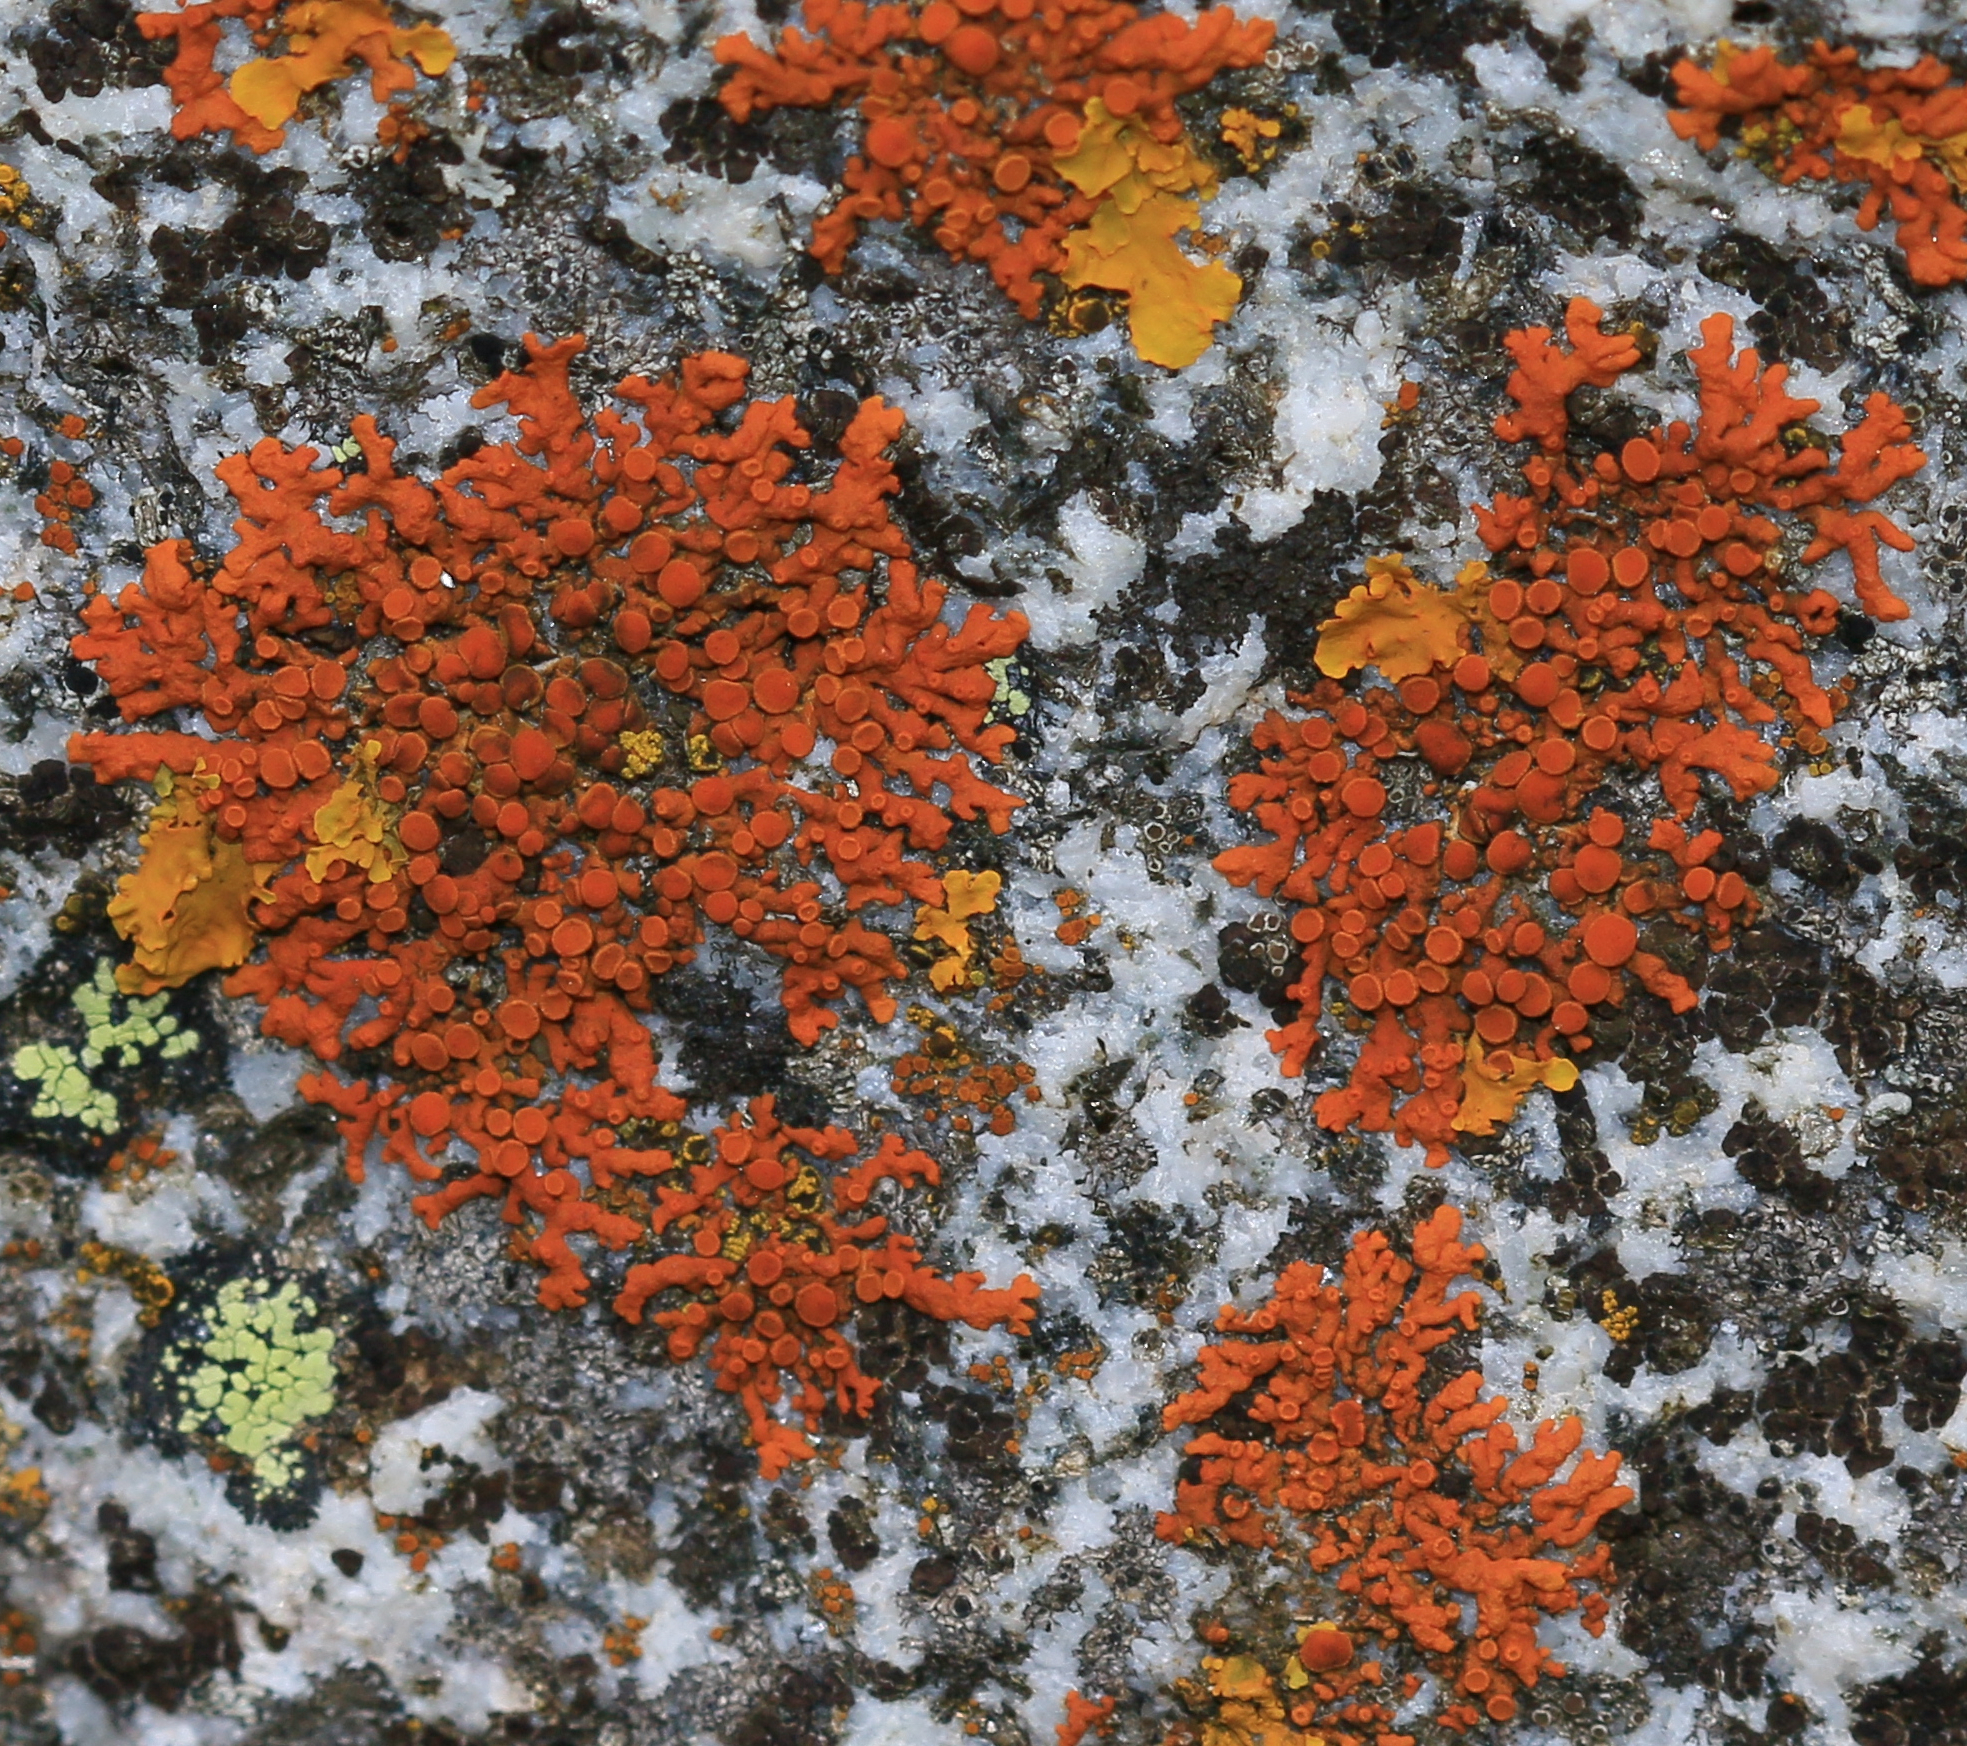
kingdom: Fungi
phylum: Ascomycota
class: Lecanoromycetes
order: Teloschistales
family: Teloschistaceae
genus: Xanthoria
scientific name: Xanthoria elegans
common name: Elegant sunburst lichen
